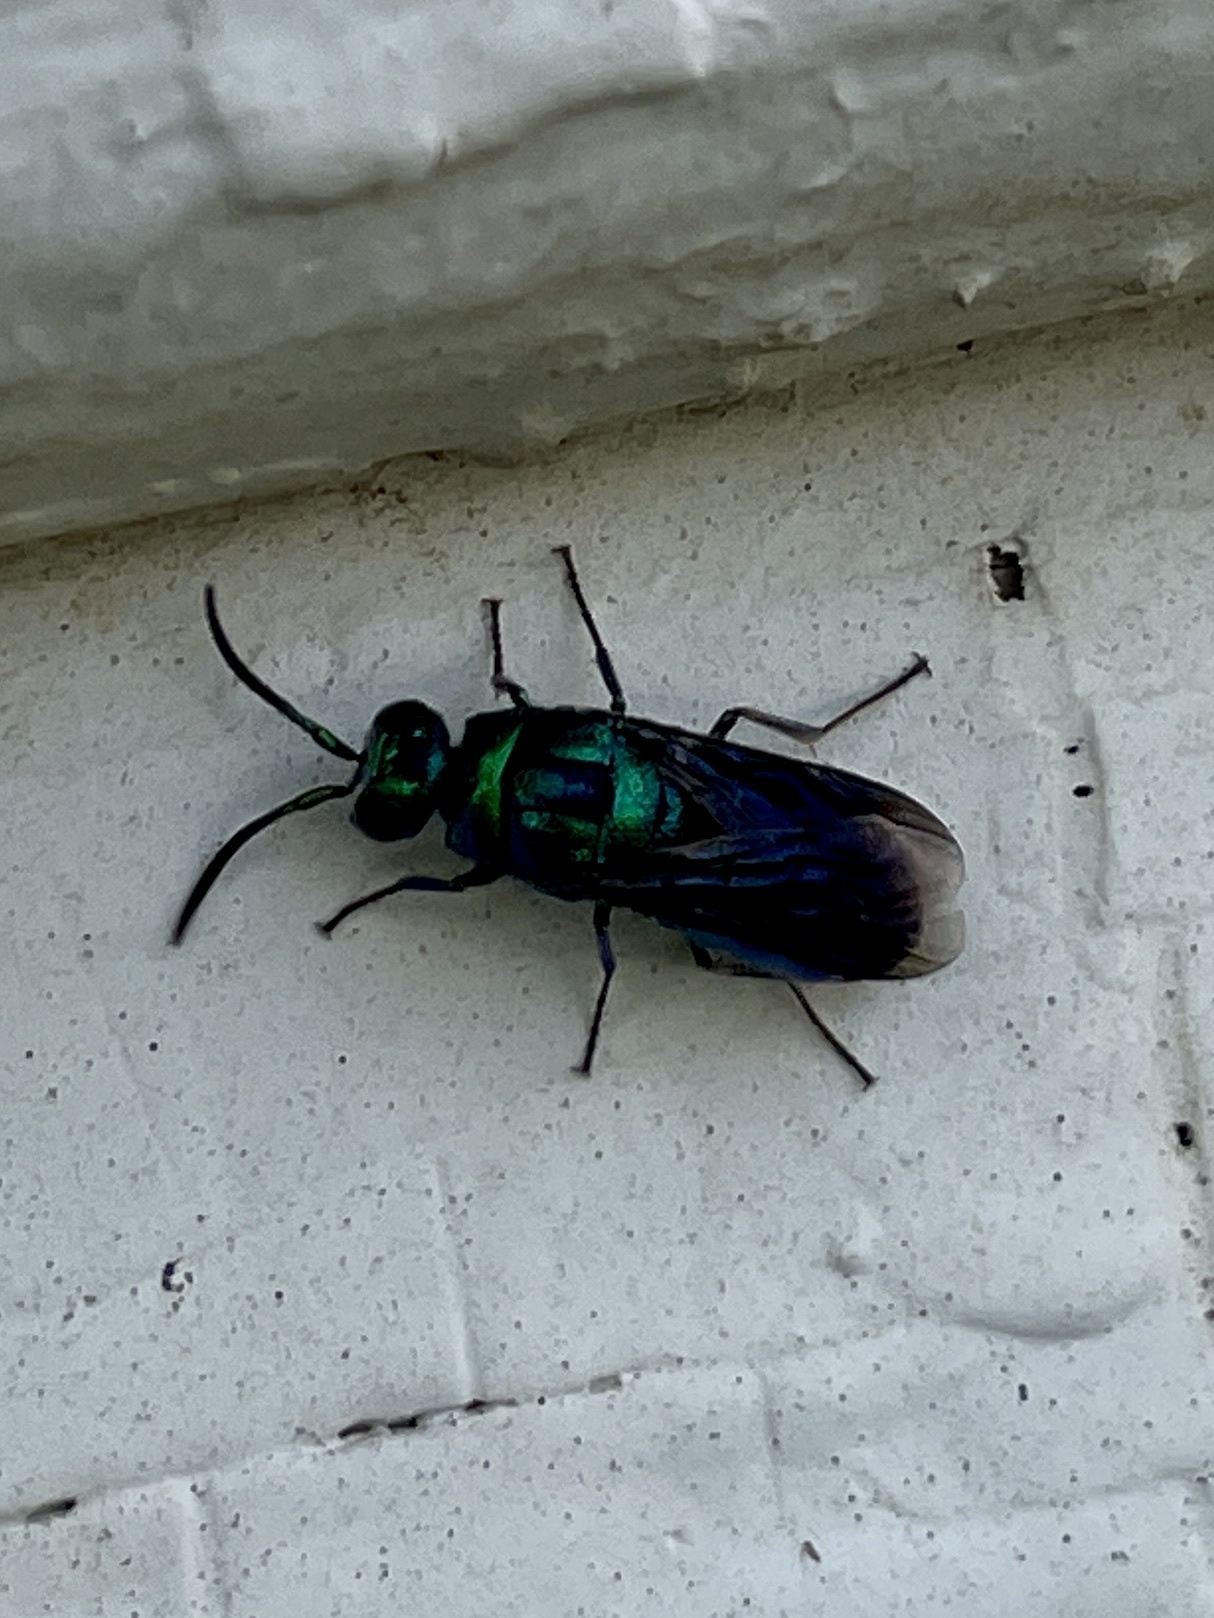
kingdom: Animalia
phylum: Arthropoda
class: Insecta
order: Hymenoptera
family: Chrysididae
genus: Chrysis
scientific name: Chrysis angolensis
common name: Cuckoo wasp
